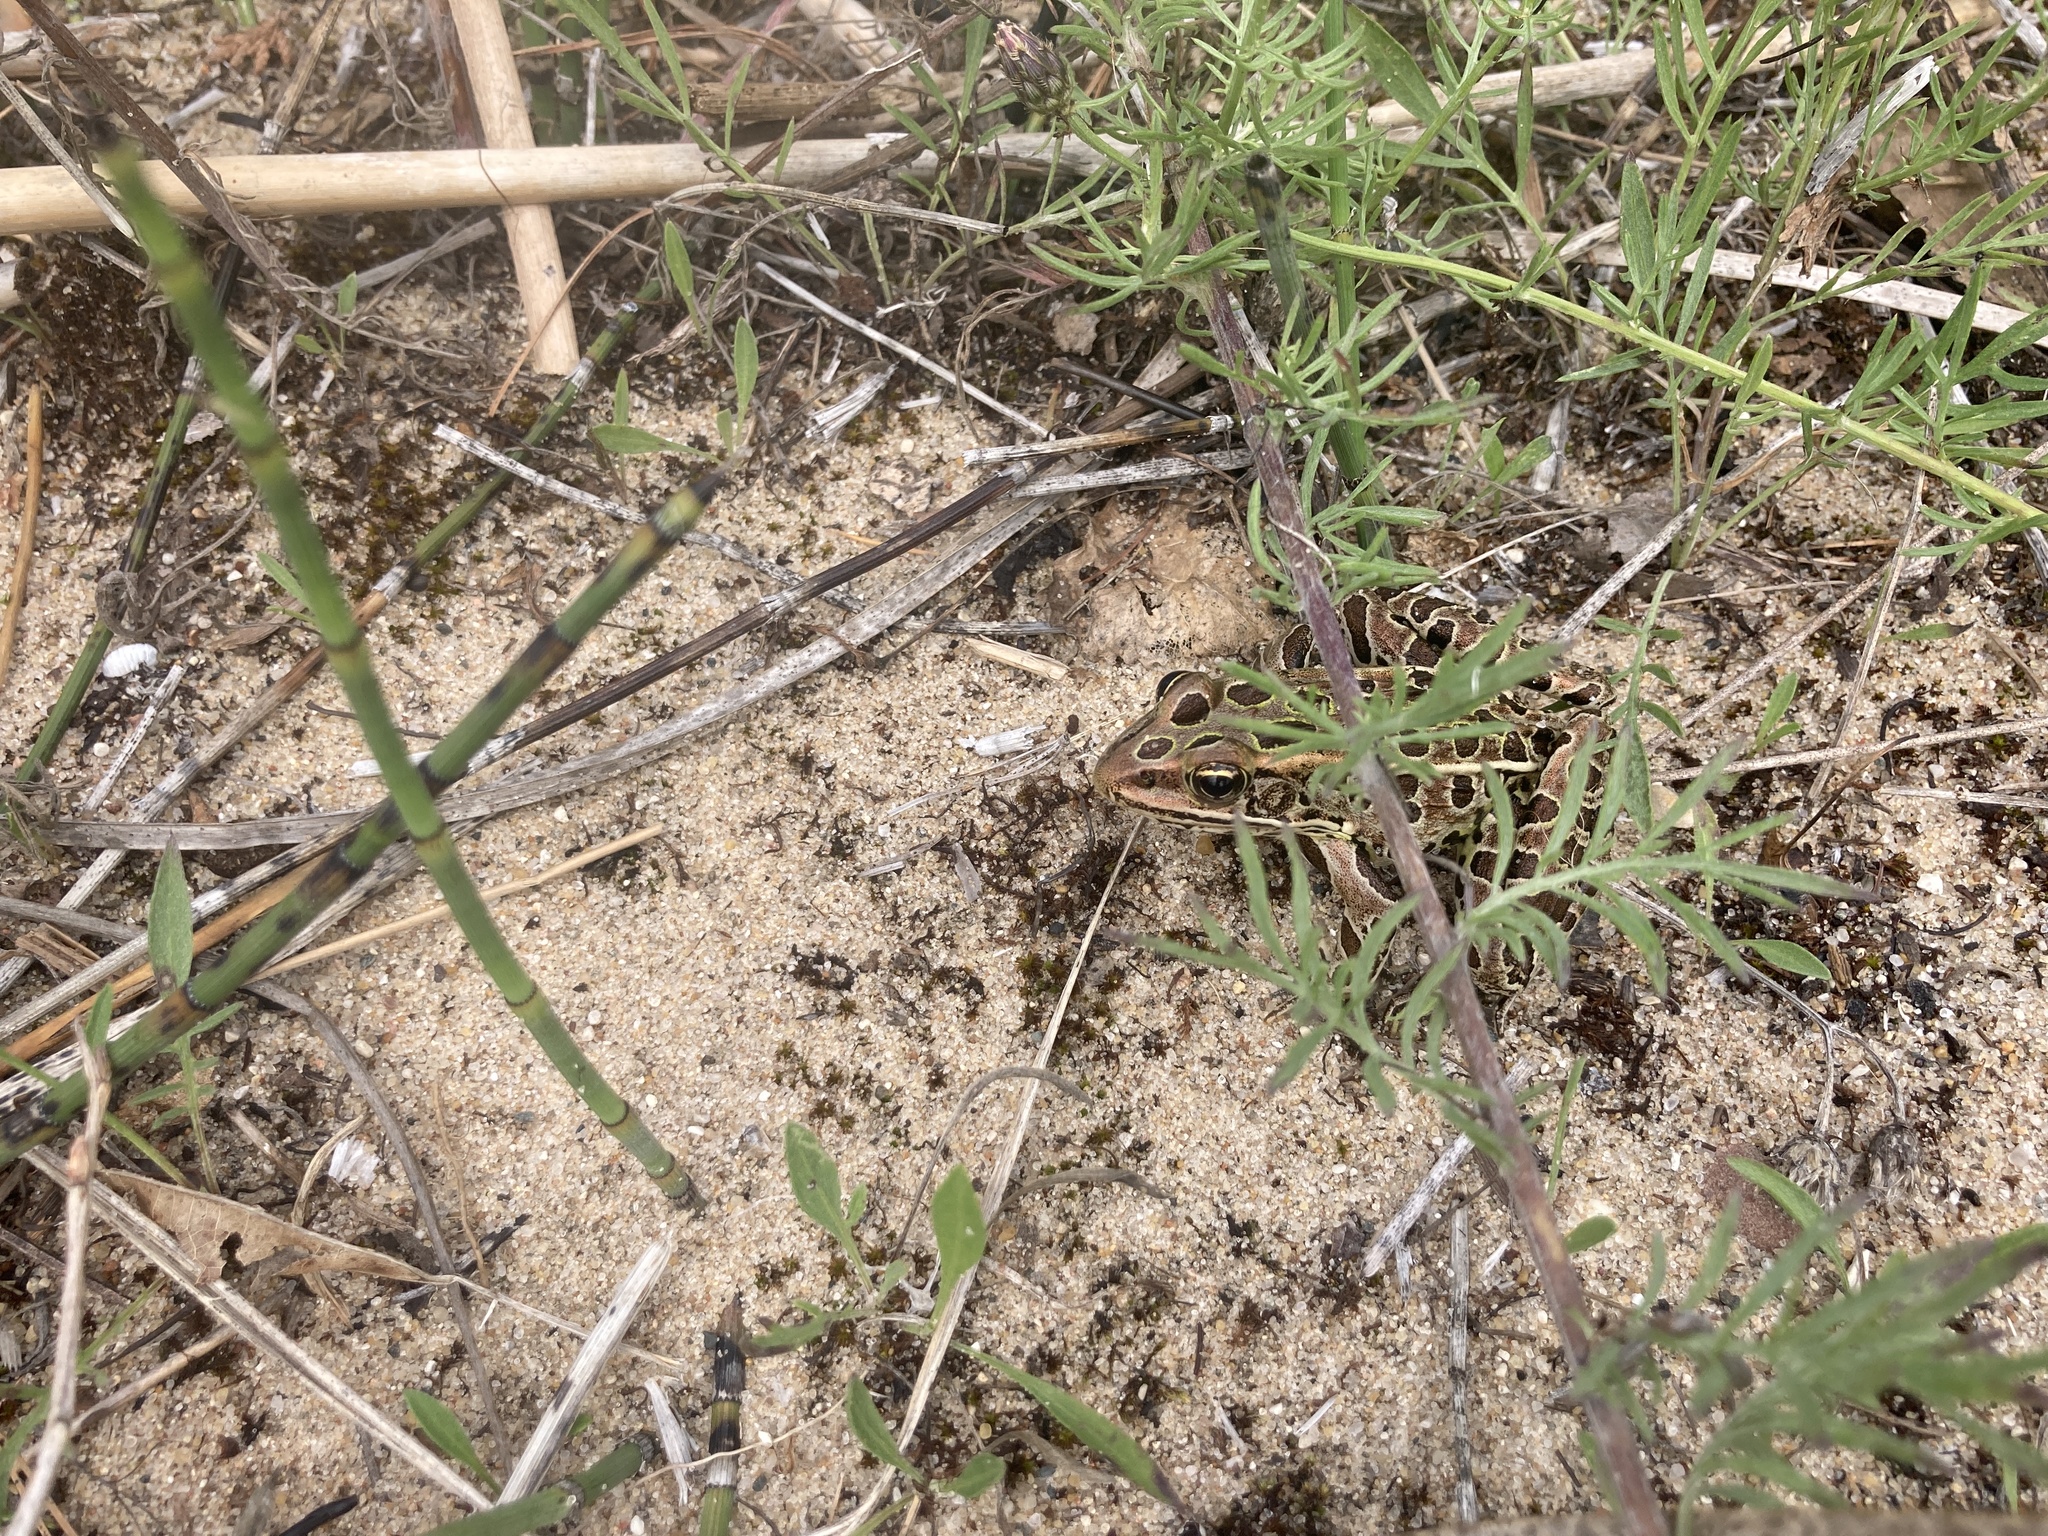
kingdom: Animalia
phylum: Chordata
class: Amphibia
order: Anura
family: Ranidae
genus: Lithobates
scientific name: Lithobates pipiens
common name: Northern leopard frog
